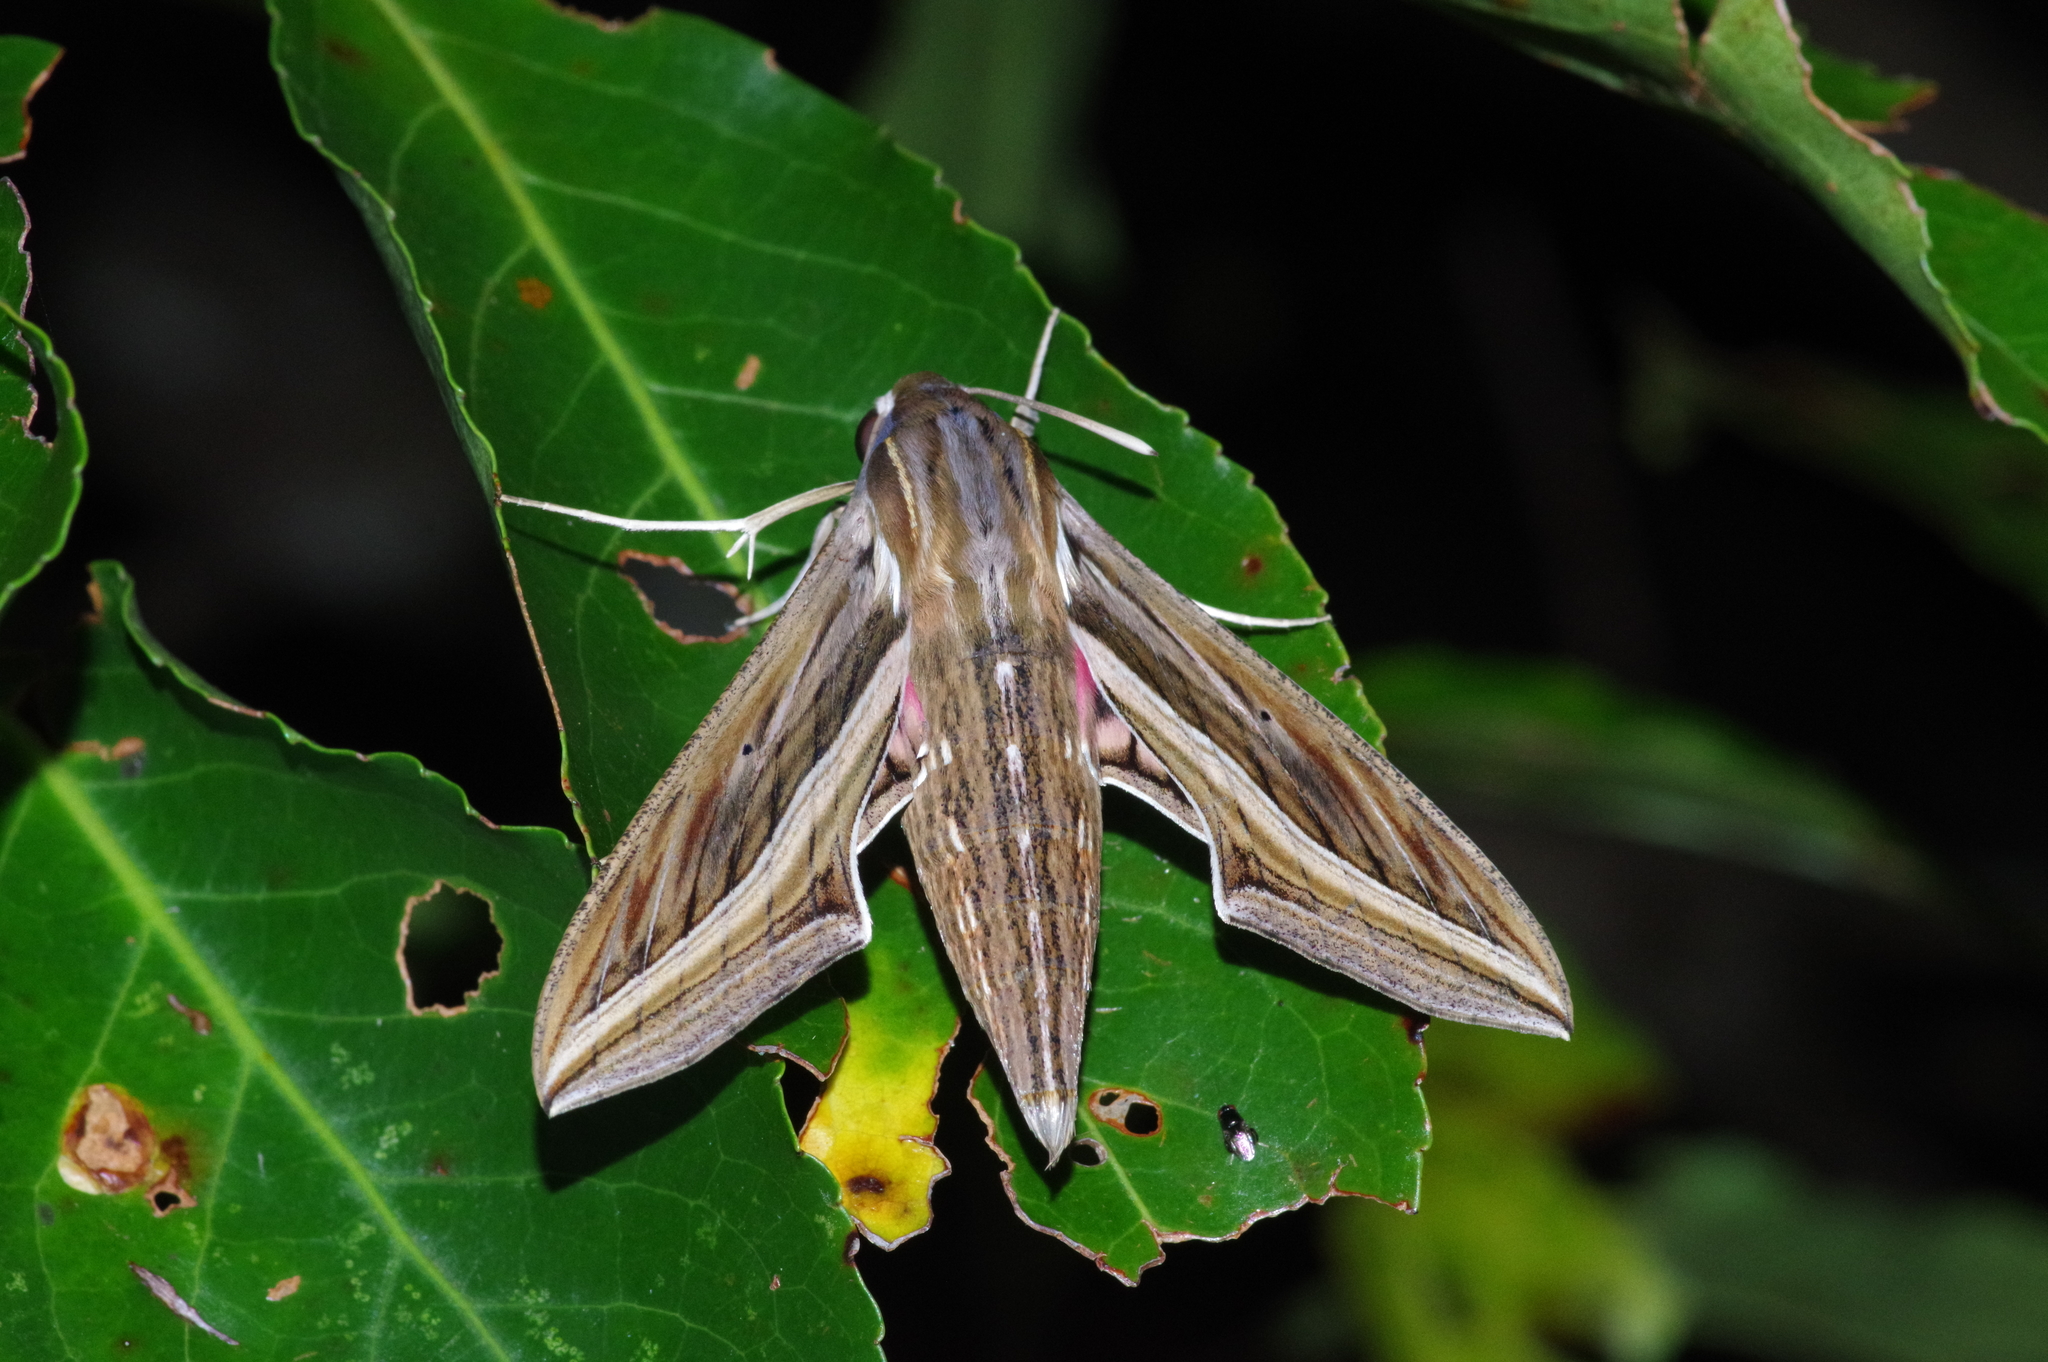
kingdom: Animalia
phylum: Arthropoda
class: Insecta
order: Lepidoptera
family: Sphingidae
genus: Hippotion
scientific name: Hippotion celerio
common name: Silver-striped hawk-moth
